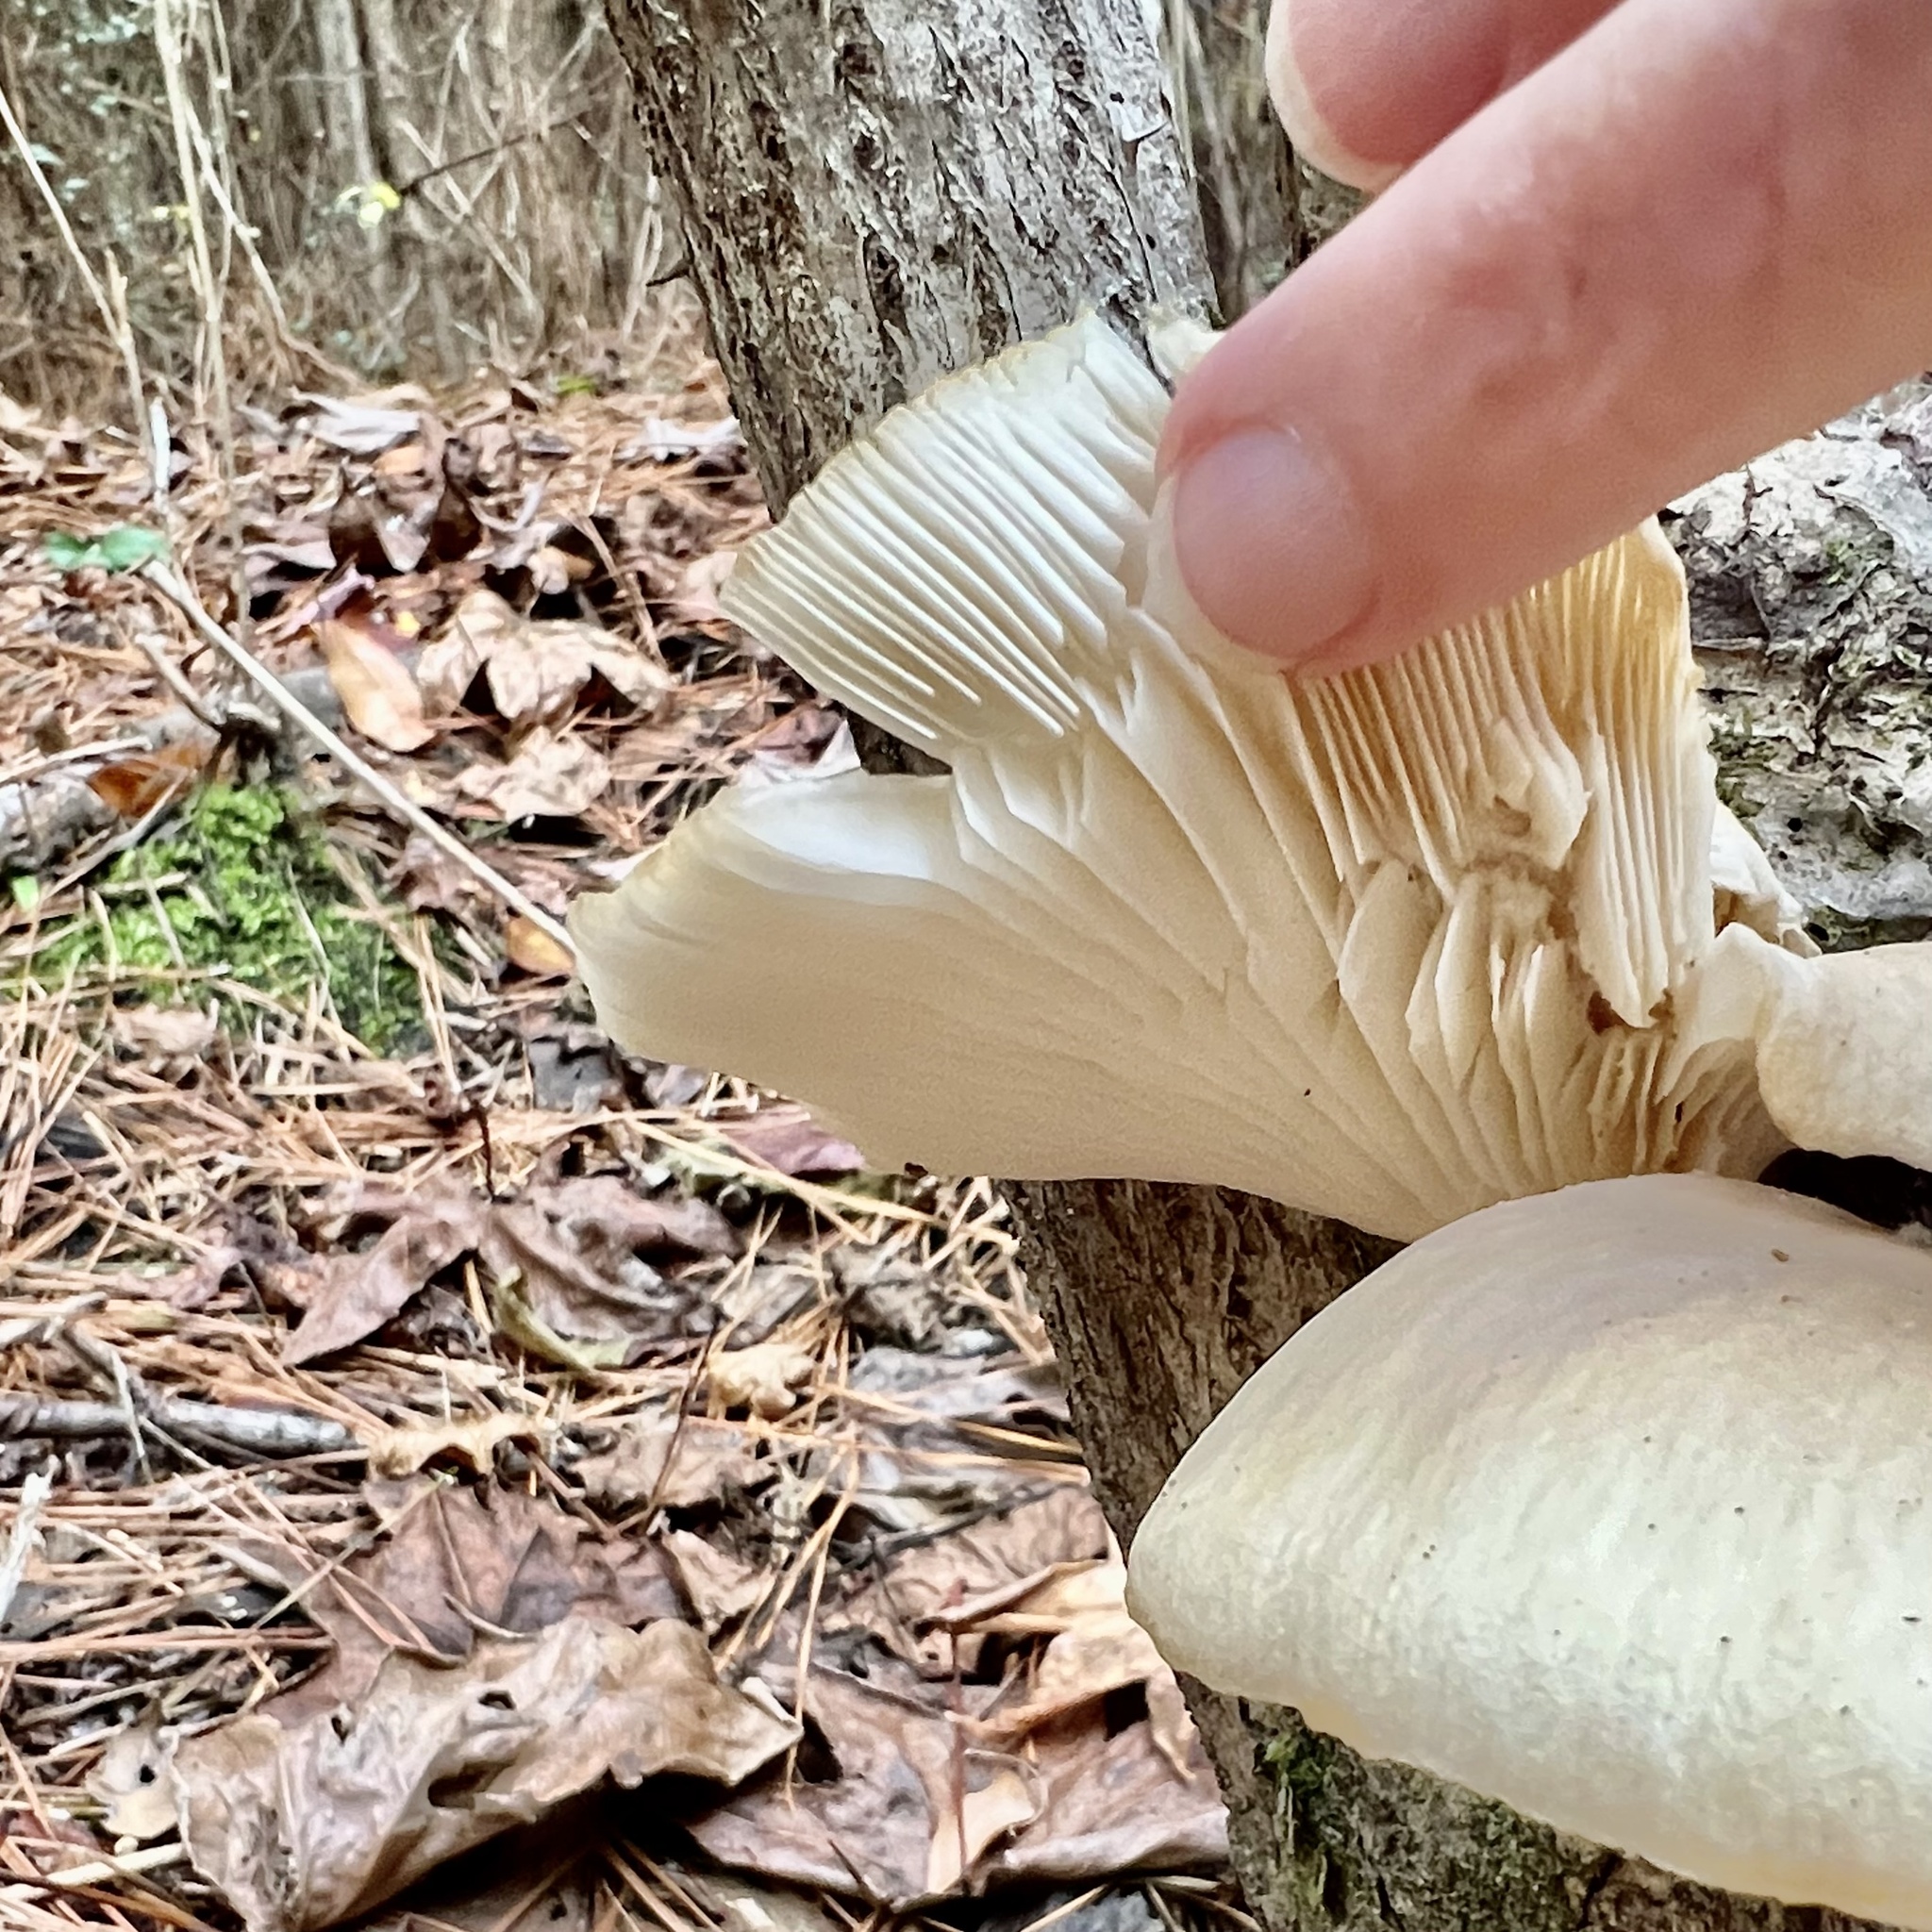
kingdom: Fungi
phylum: Basidiomycota
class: Agaricomycetes
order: Agaricales
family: Pleurotaceae
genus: Pleurotus
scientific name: Pleurotus ostreatus
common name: Oyster mushroom
